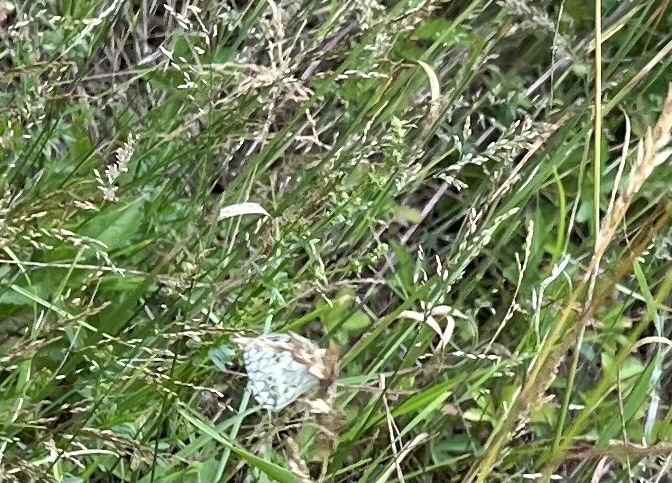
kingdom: Animalia
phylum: Arthropoda
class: Insecta
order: Lepidoptera
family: Nymphalidae
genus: Melanargia
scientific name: Melanargia galathea
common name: Marbled white
